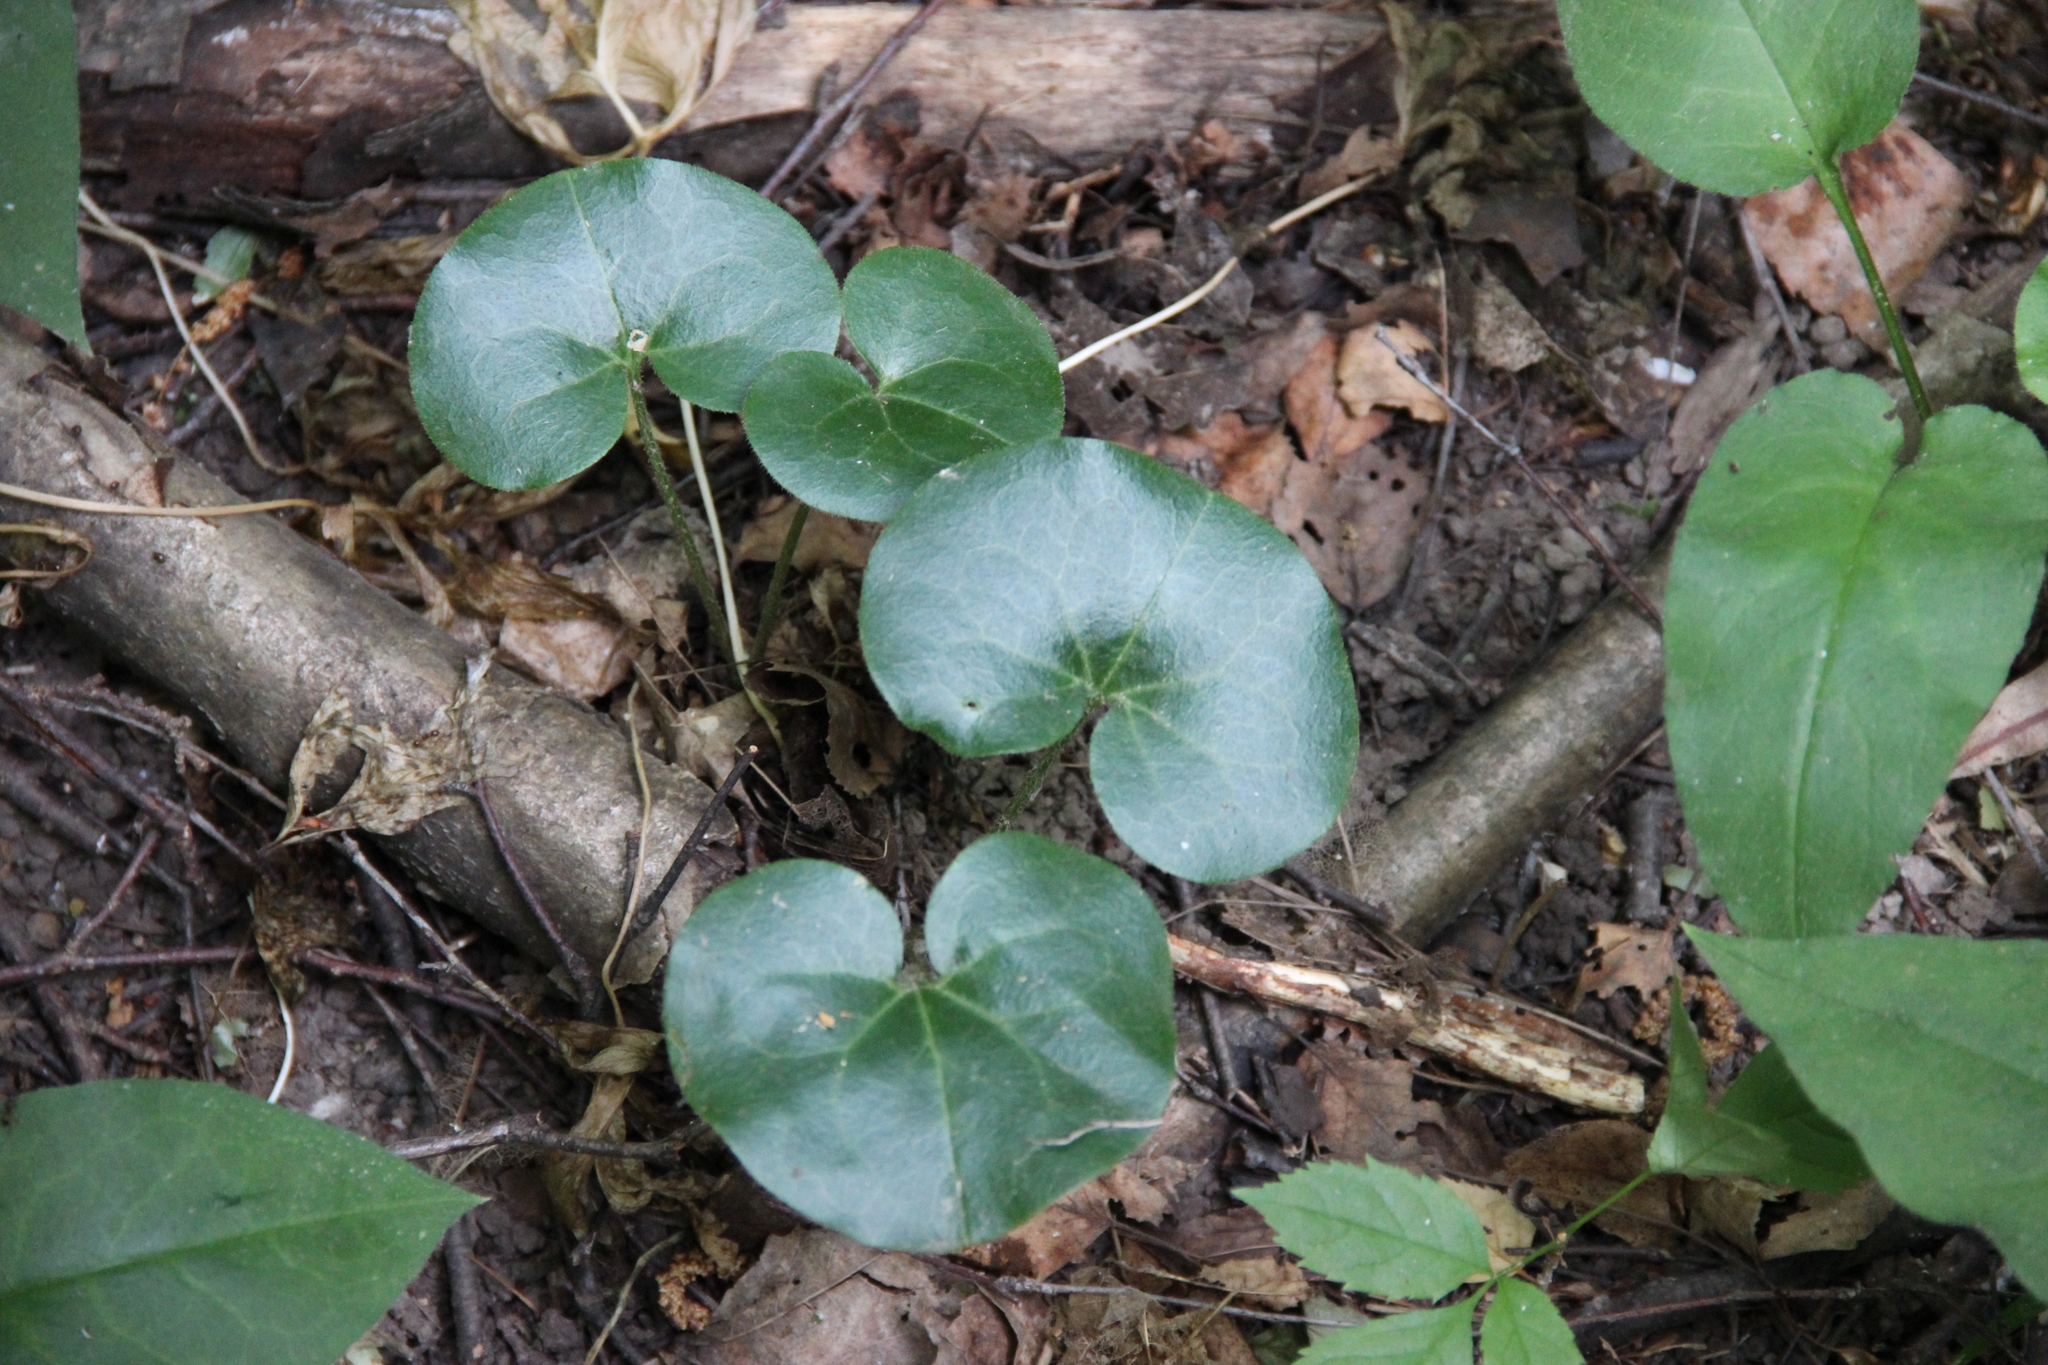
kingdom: Plantae
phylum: Tracheophyta
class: Magnoliopsida
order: Piperales
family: Aristolochiaceae
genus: Asarum
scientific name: Asarum europaeum
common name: Asarabacca
